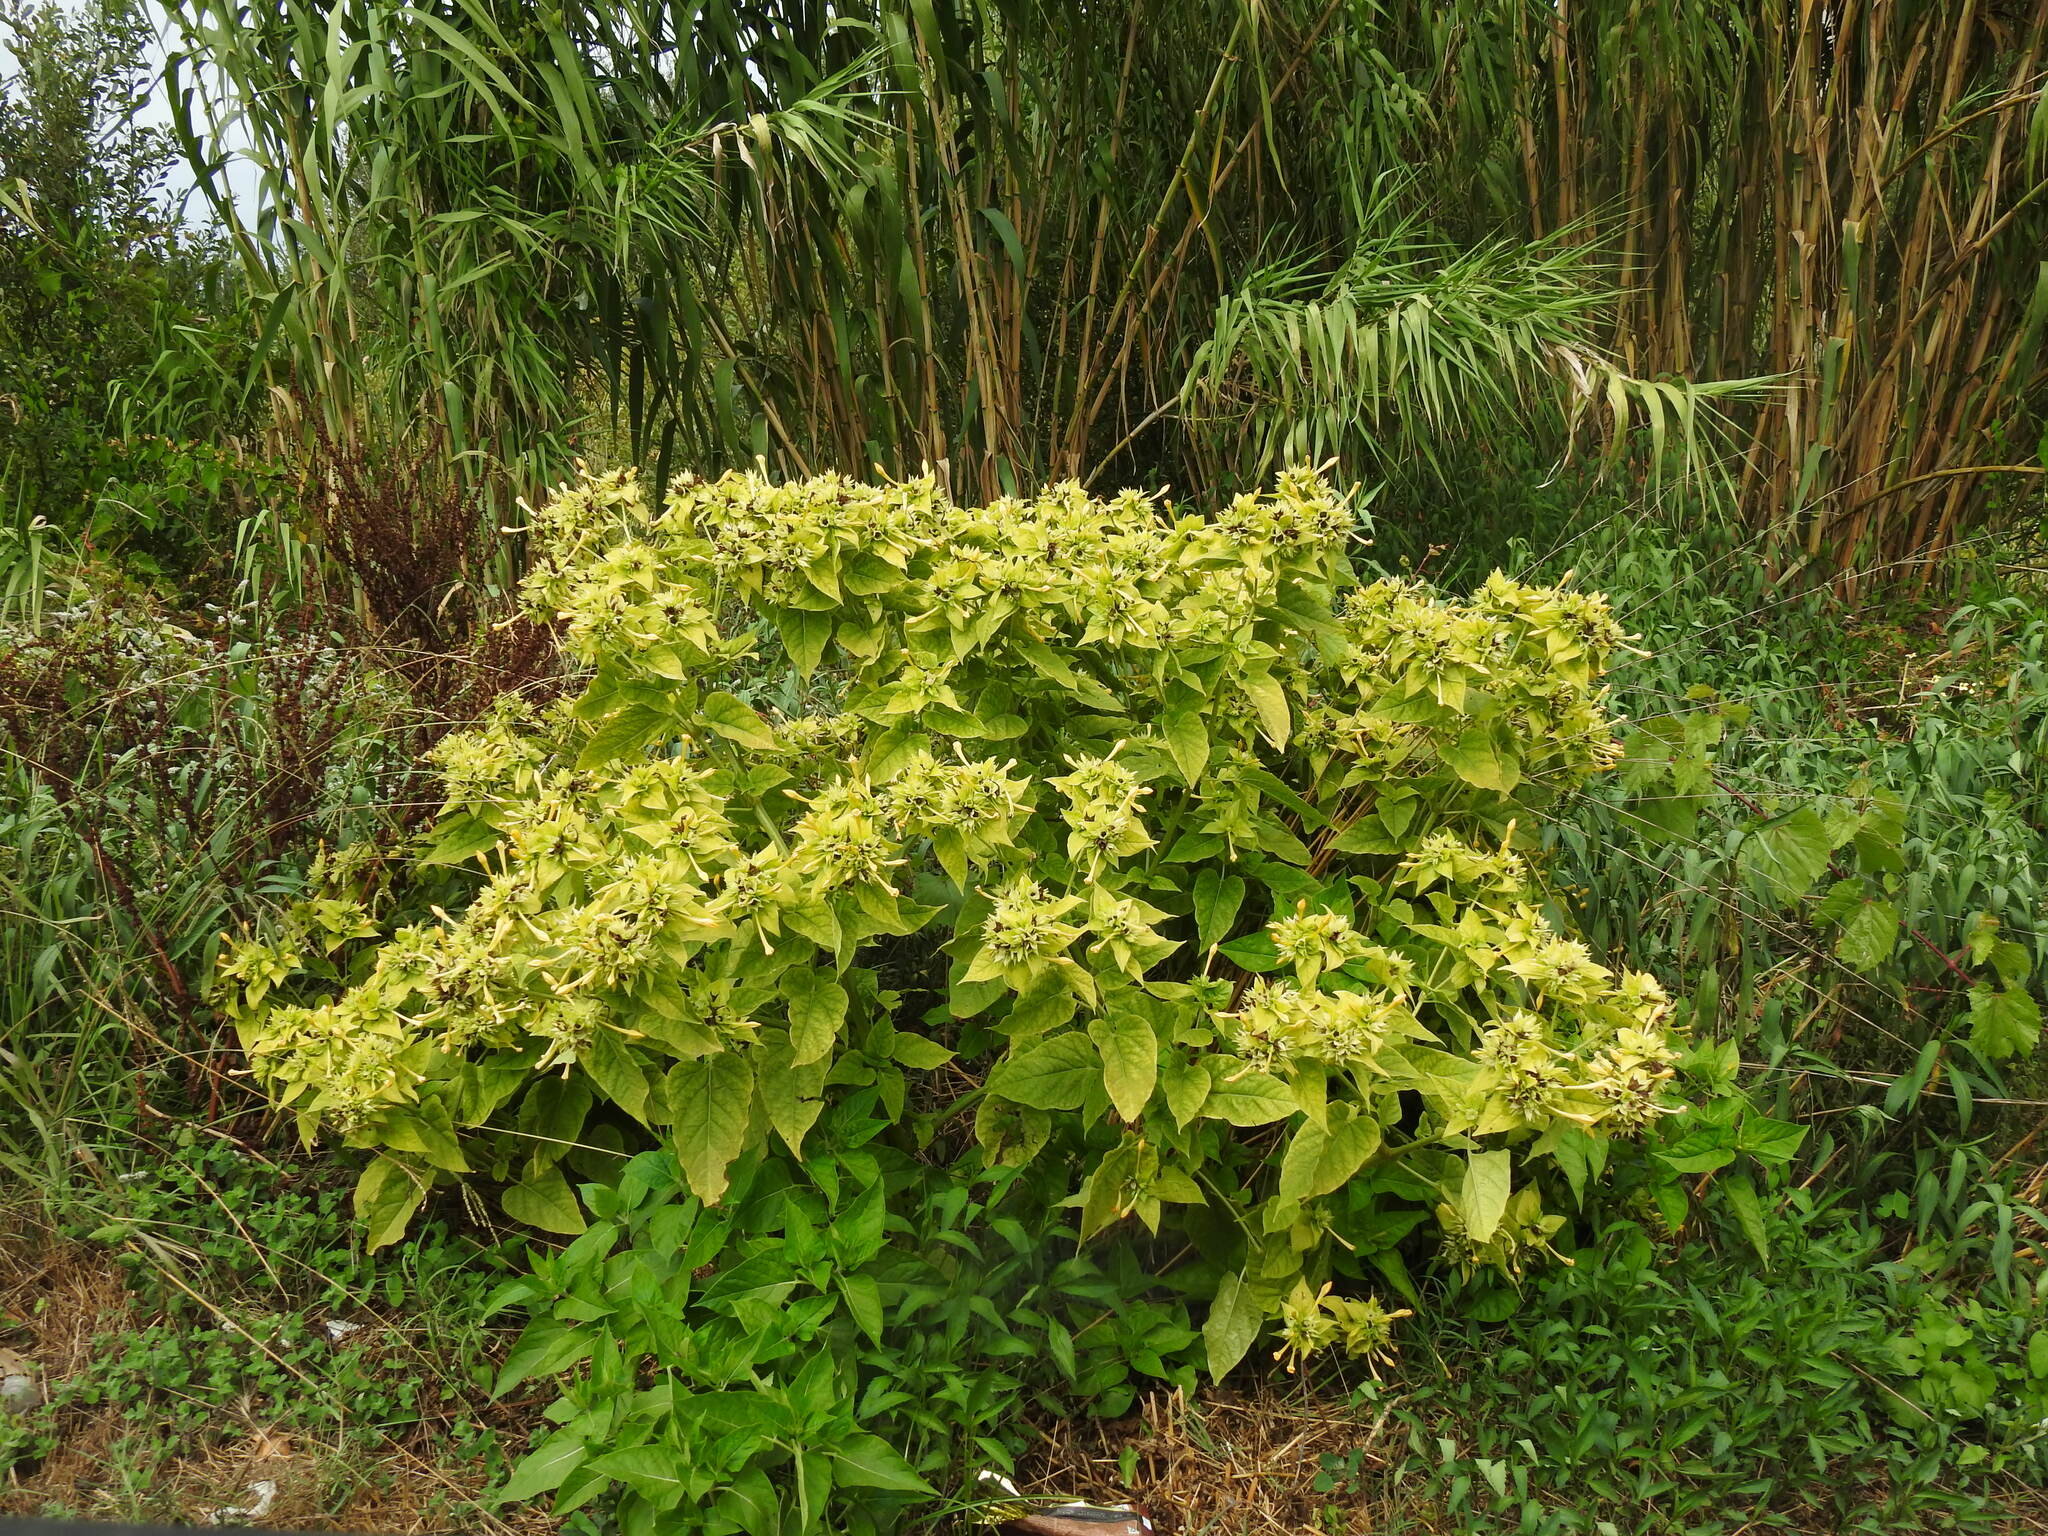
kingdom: Plantae
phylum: Tracheophyta
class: Magnoliopsida
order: Caryophyllales
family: Nyctaginaceae
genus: Mirabilis
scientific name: Mirabilis jalapa
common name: Marvel-of-peru
